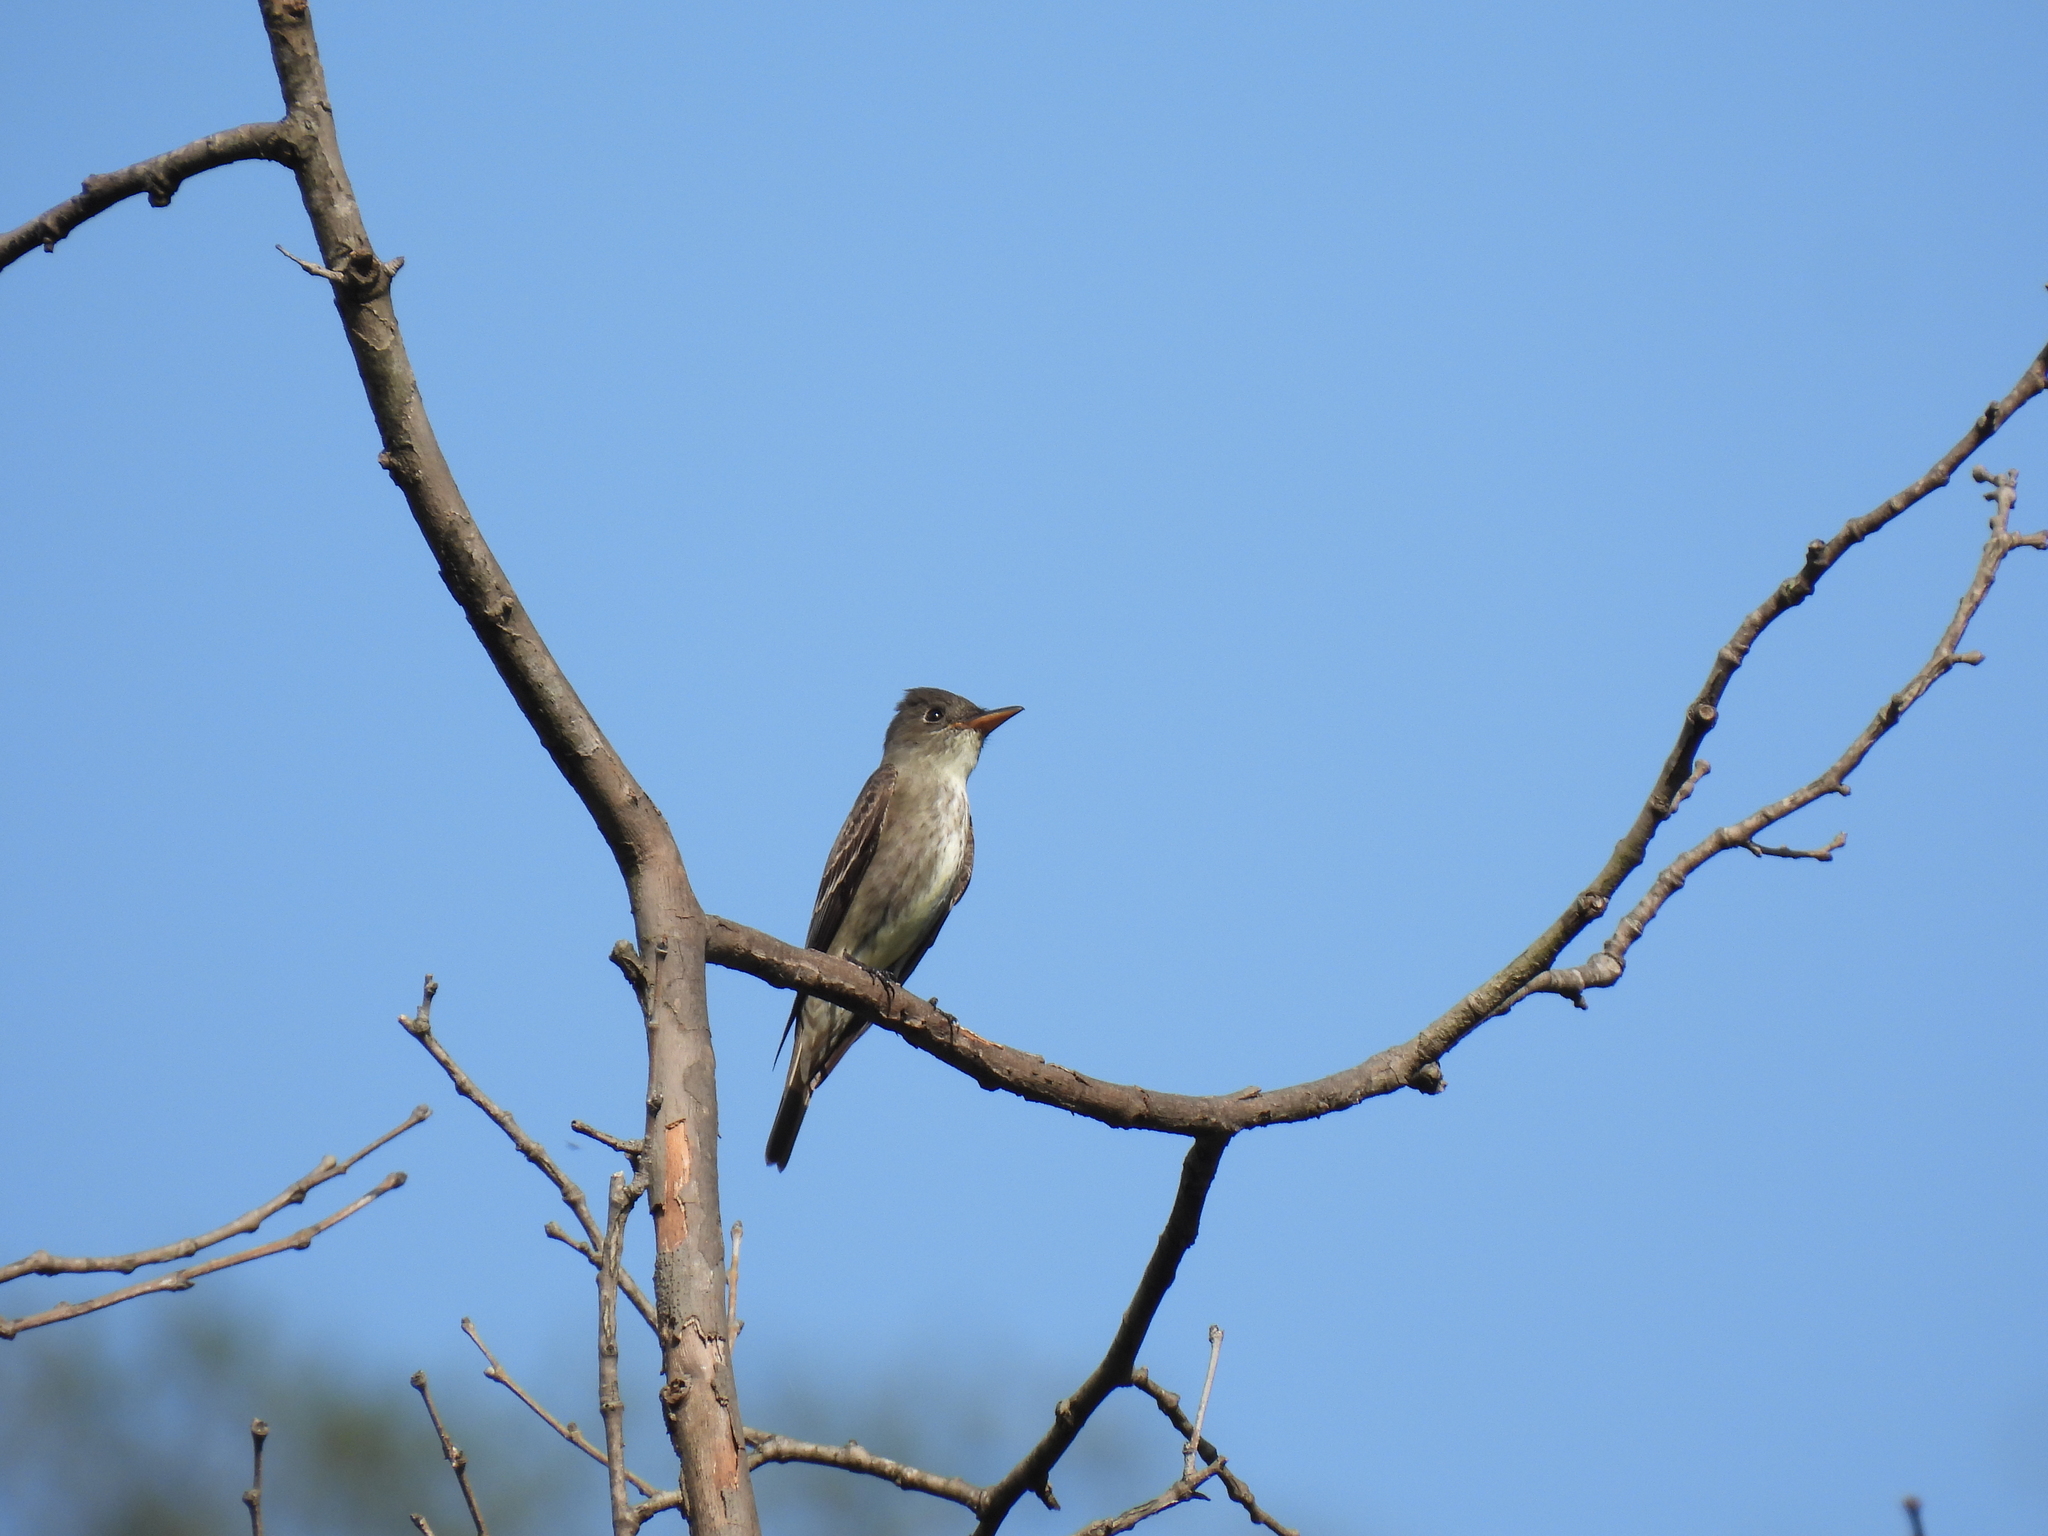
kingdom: Animalia
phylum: Chordata
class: Aves
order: Passeriformes
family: Tyrannidae
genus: Contopus
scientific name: Contopus cooperi
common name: Olive-sided flycatcher
